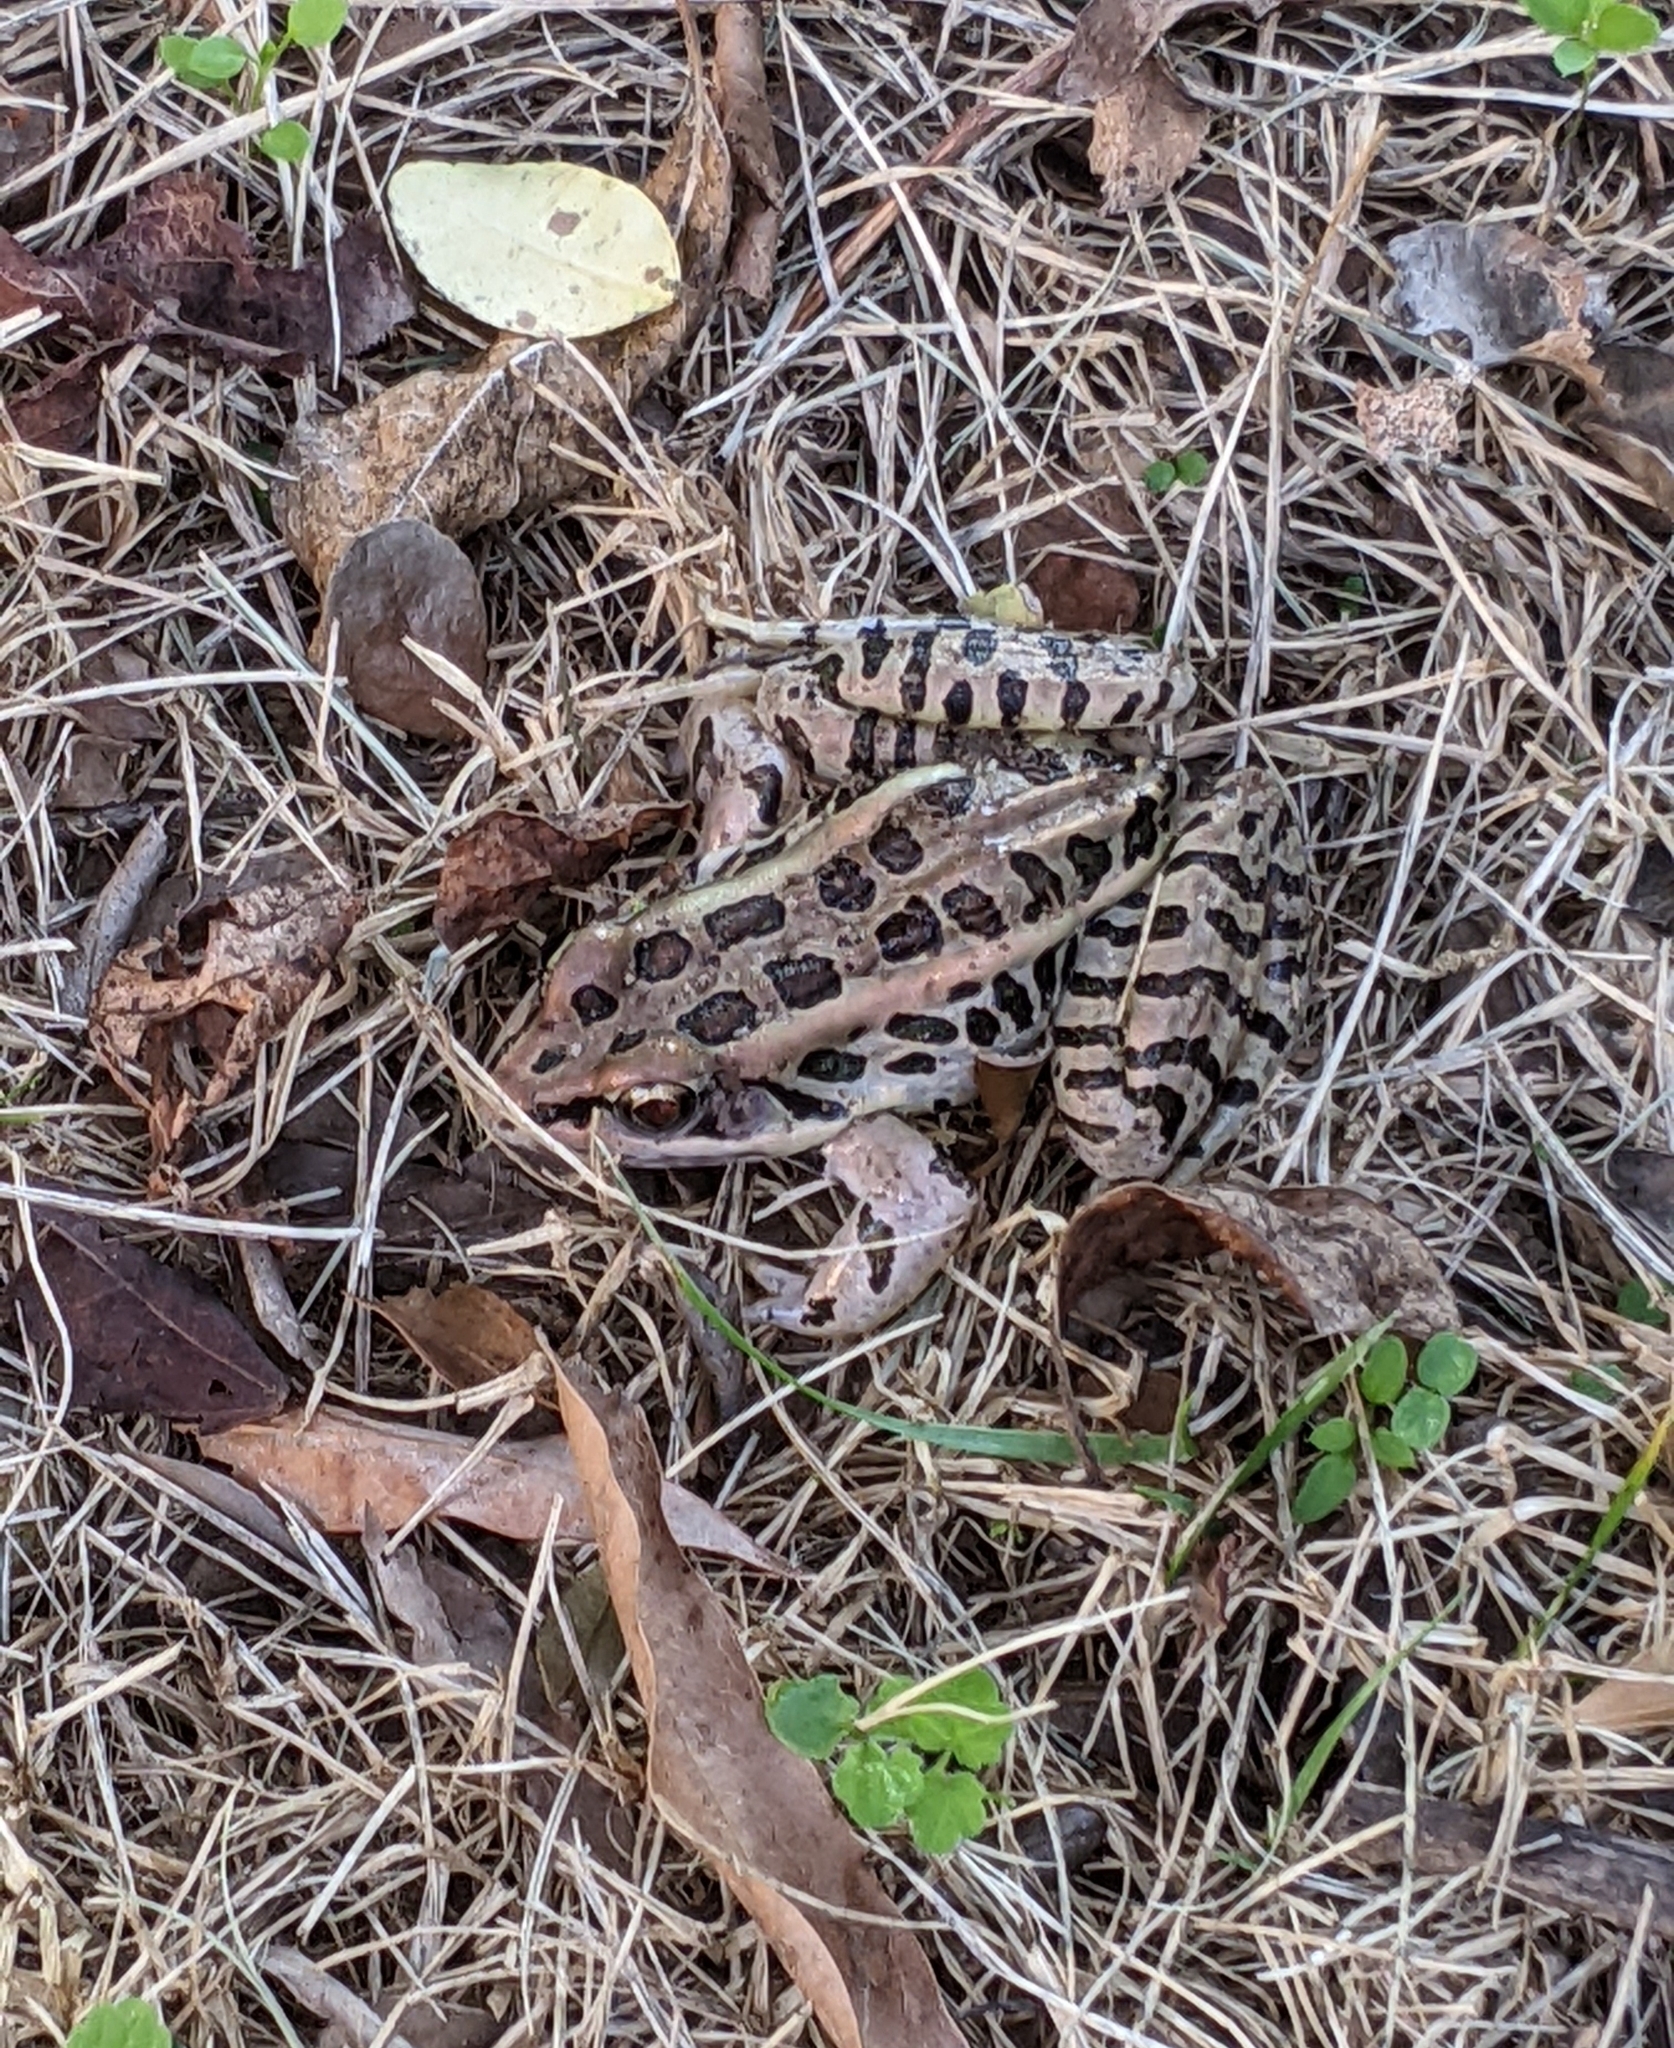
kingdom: Animalia
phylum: Chordata
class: Amphibia
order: Anura
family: Ranidae
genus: Lithobates
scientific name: Lithobates palustris
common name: Pickerel frog
